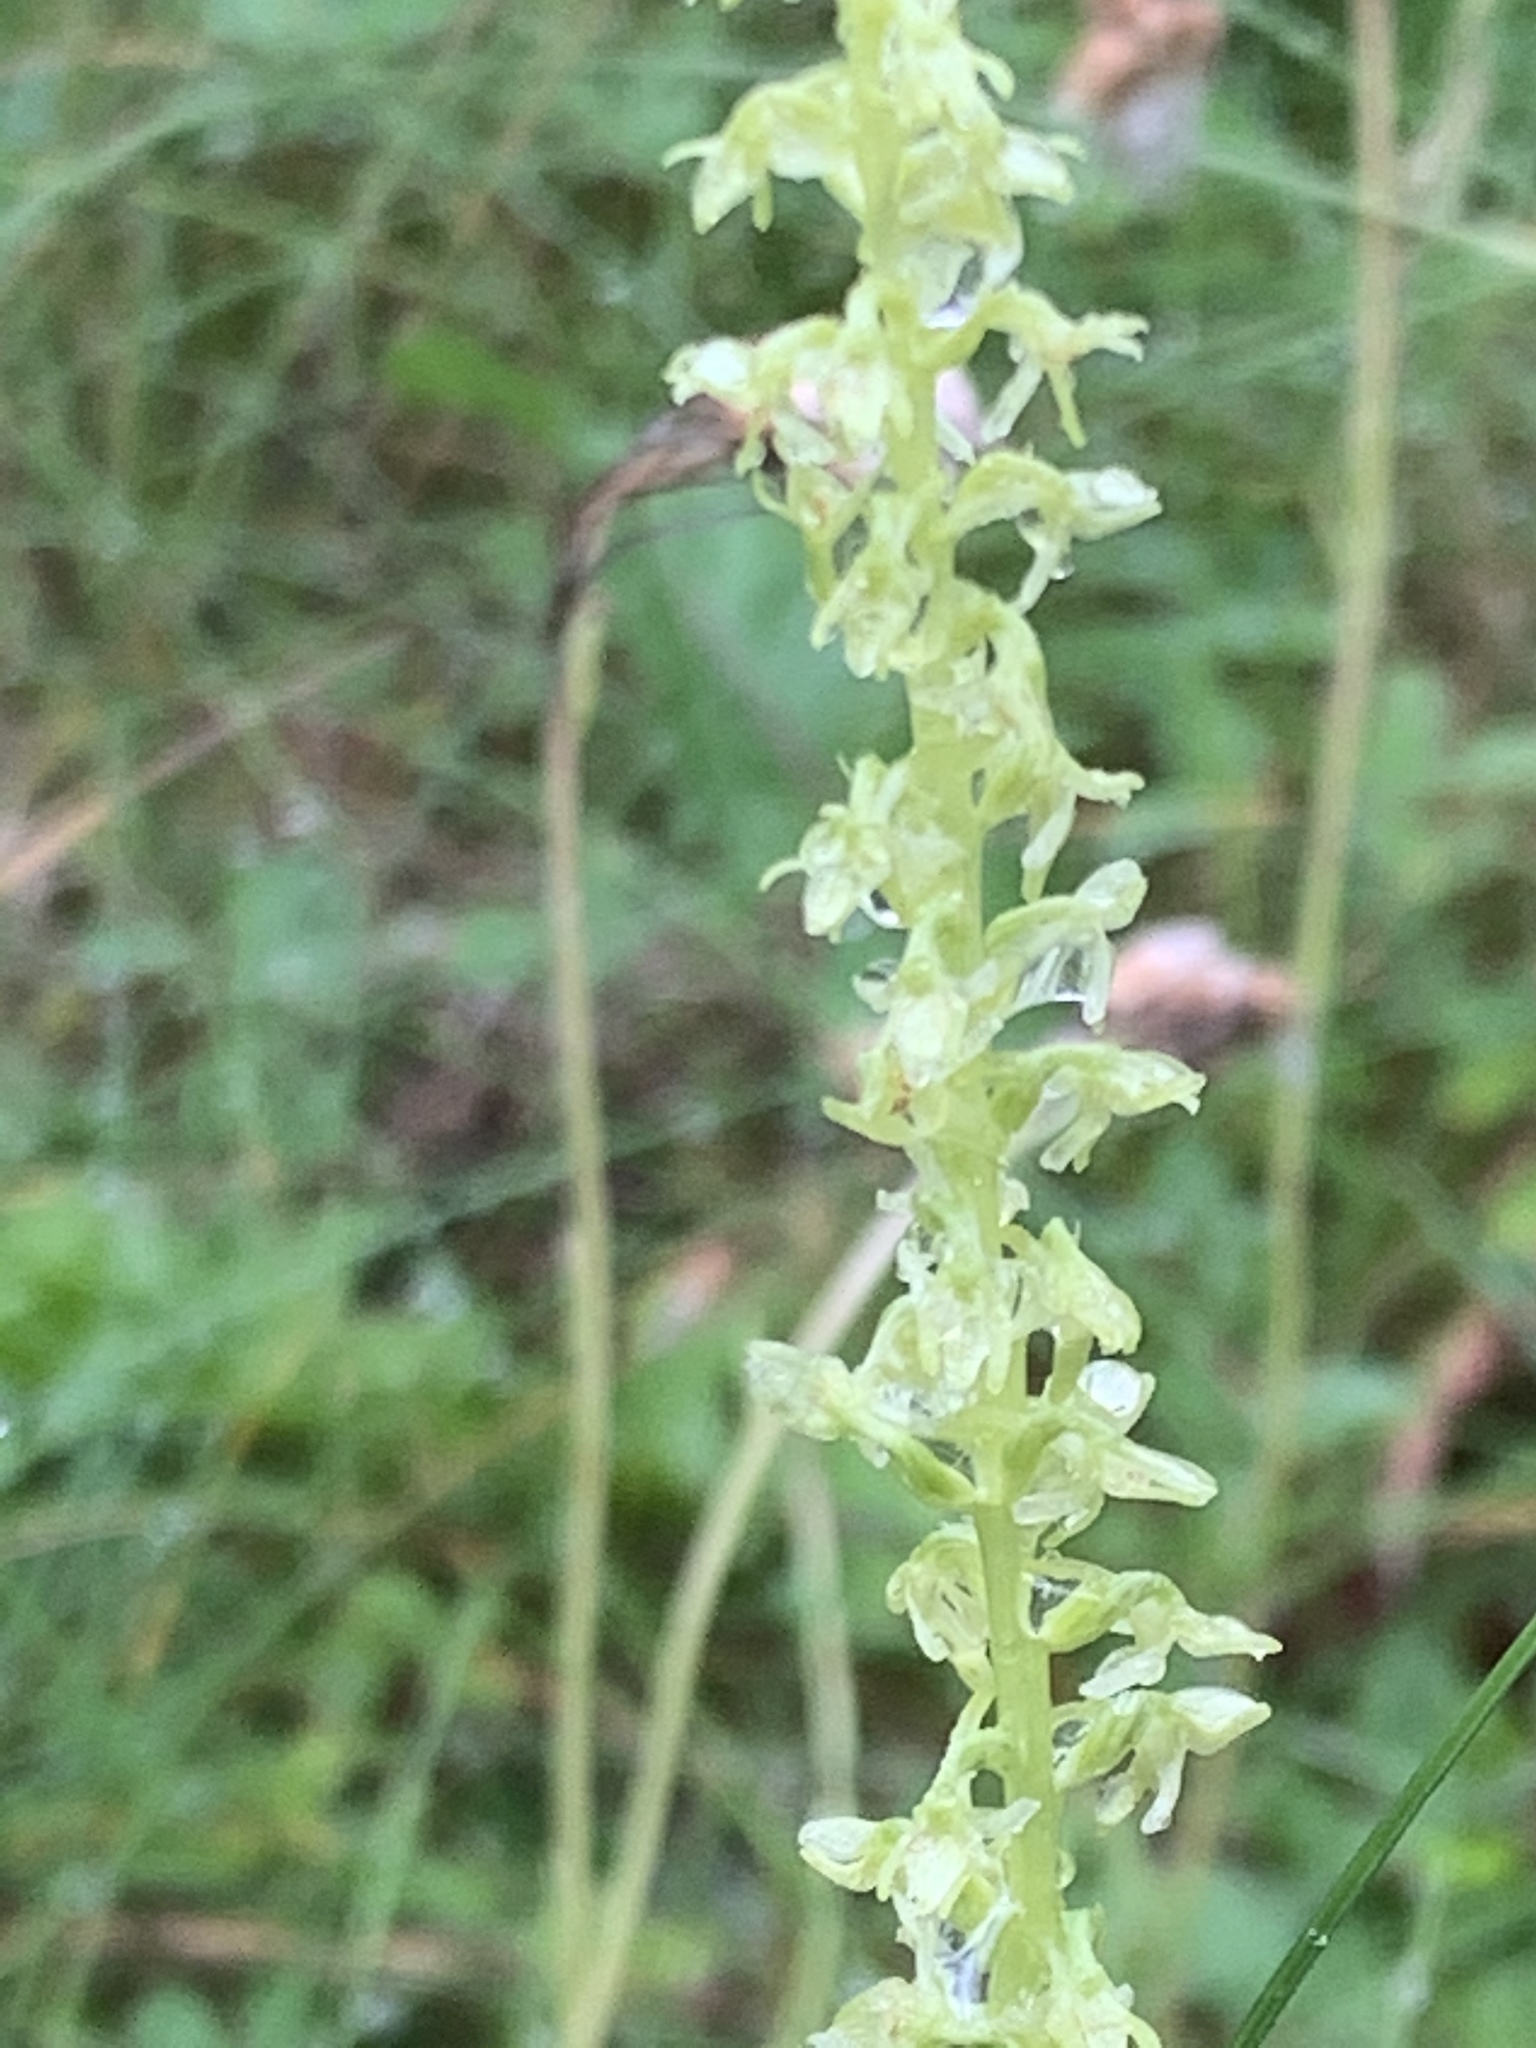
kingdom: Plantae
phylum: Tracheophyta
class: Liliopsida
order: Asparagales
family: Orchidaceae
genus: Platanthera
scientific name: Platanthera unalascensis
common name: Alaska bog orchid
